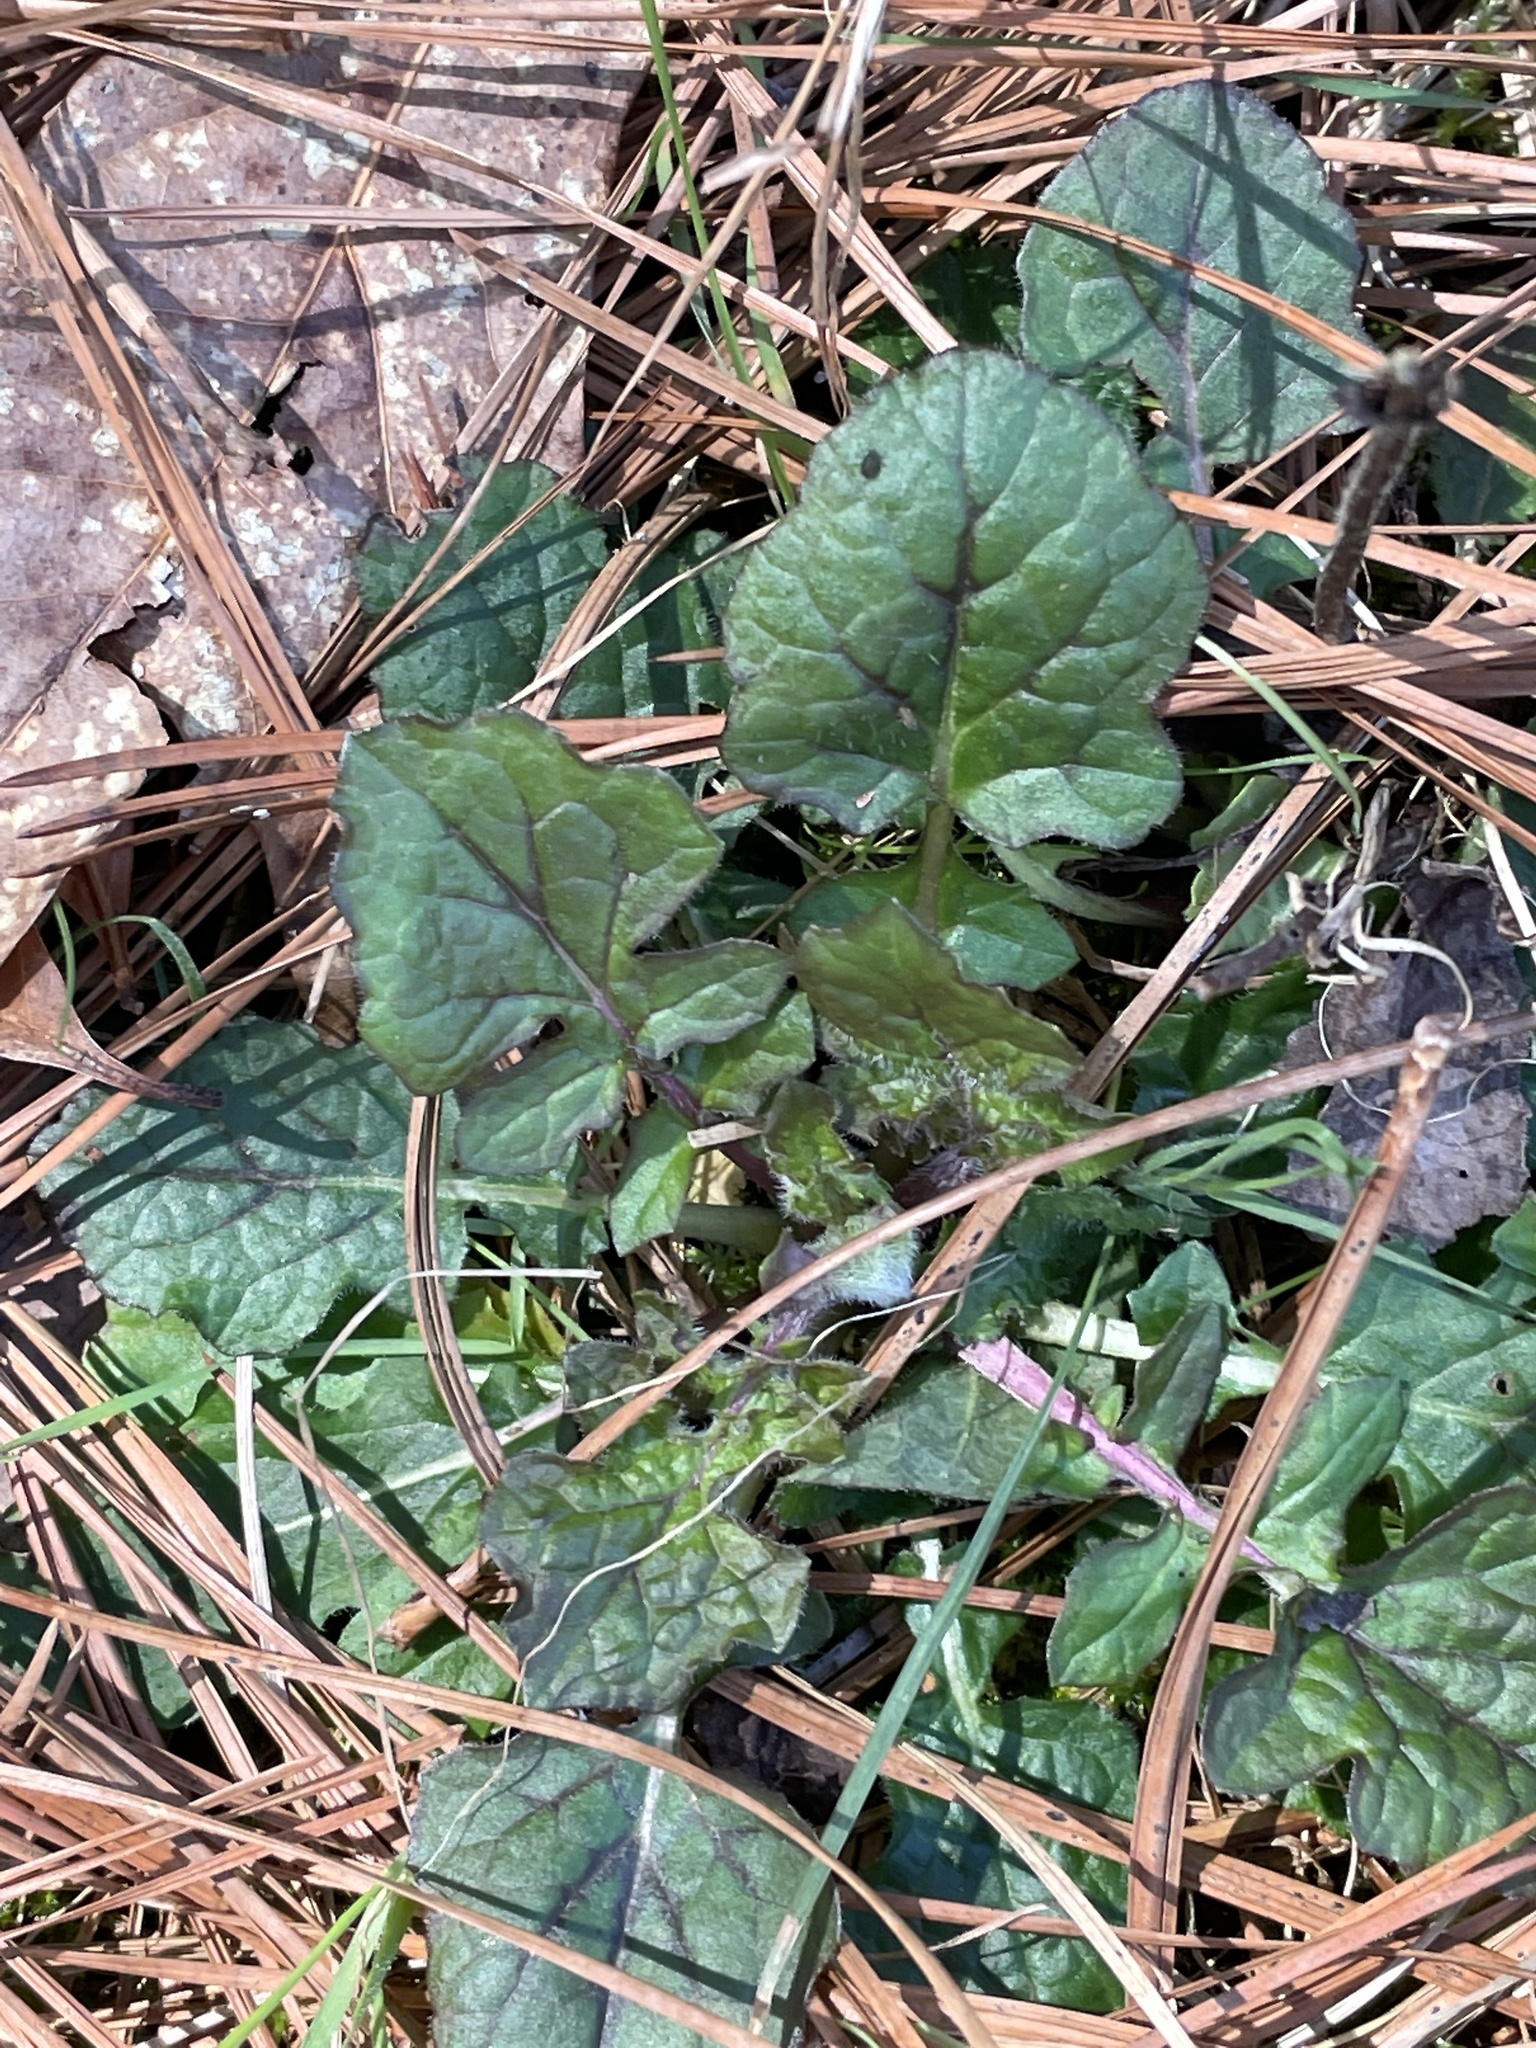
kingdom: Plantae
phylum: Tracheophyta
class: Magnoliopsida
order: Lamiales
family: Lamiaceae
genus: Salvia
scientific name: Salvia lyrata
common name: Cancerweed
